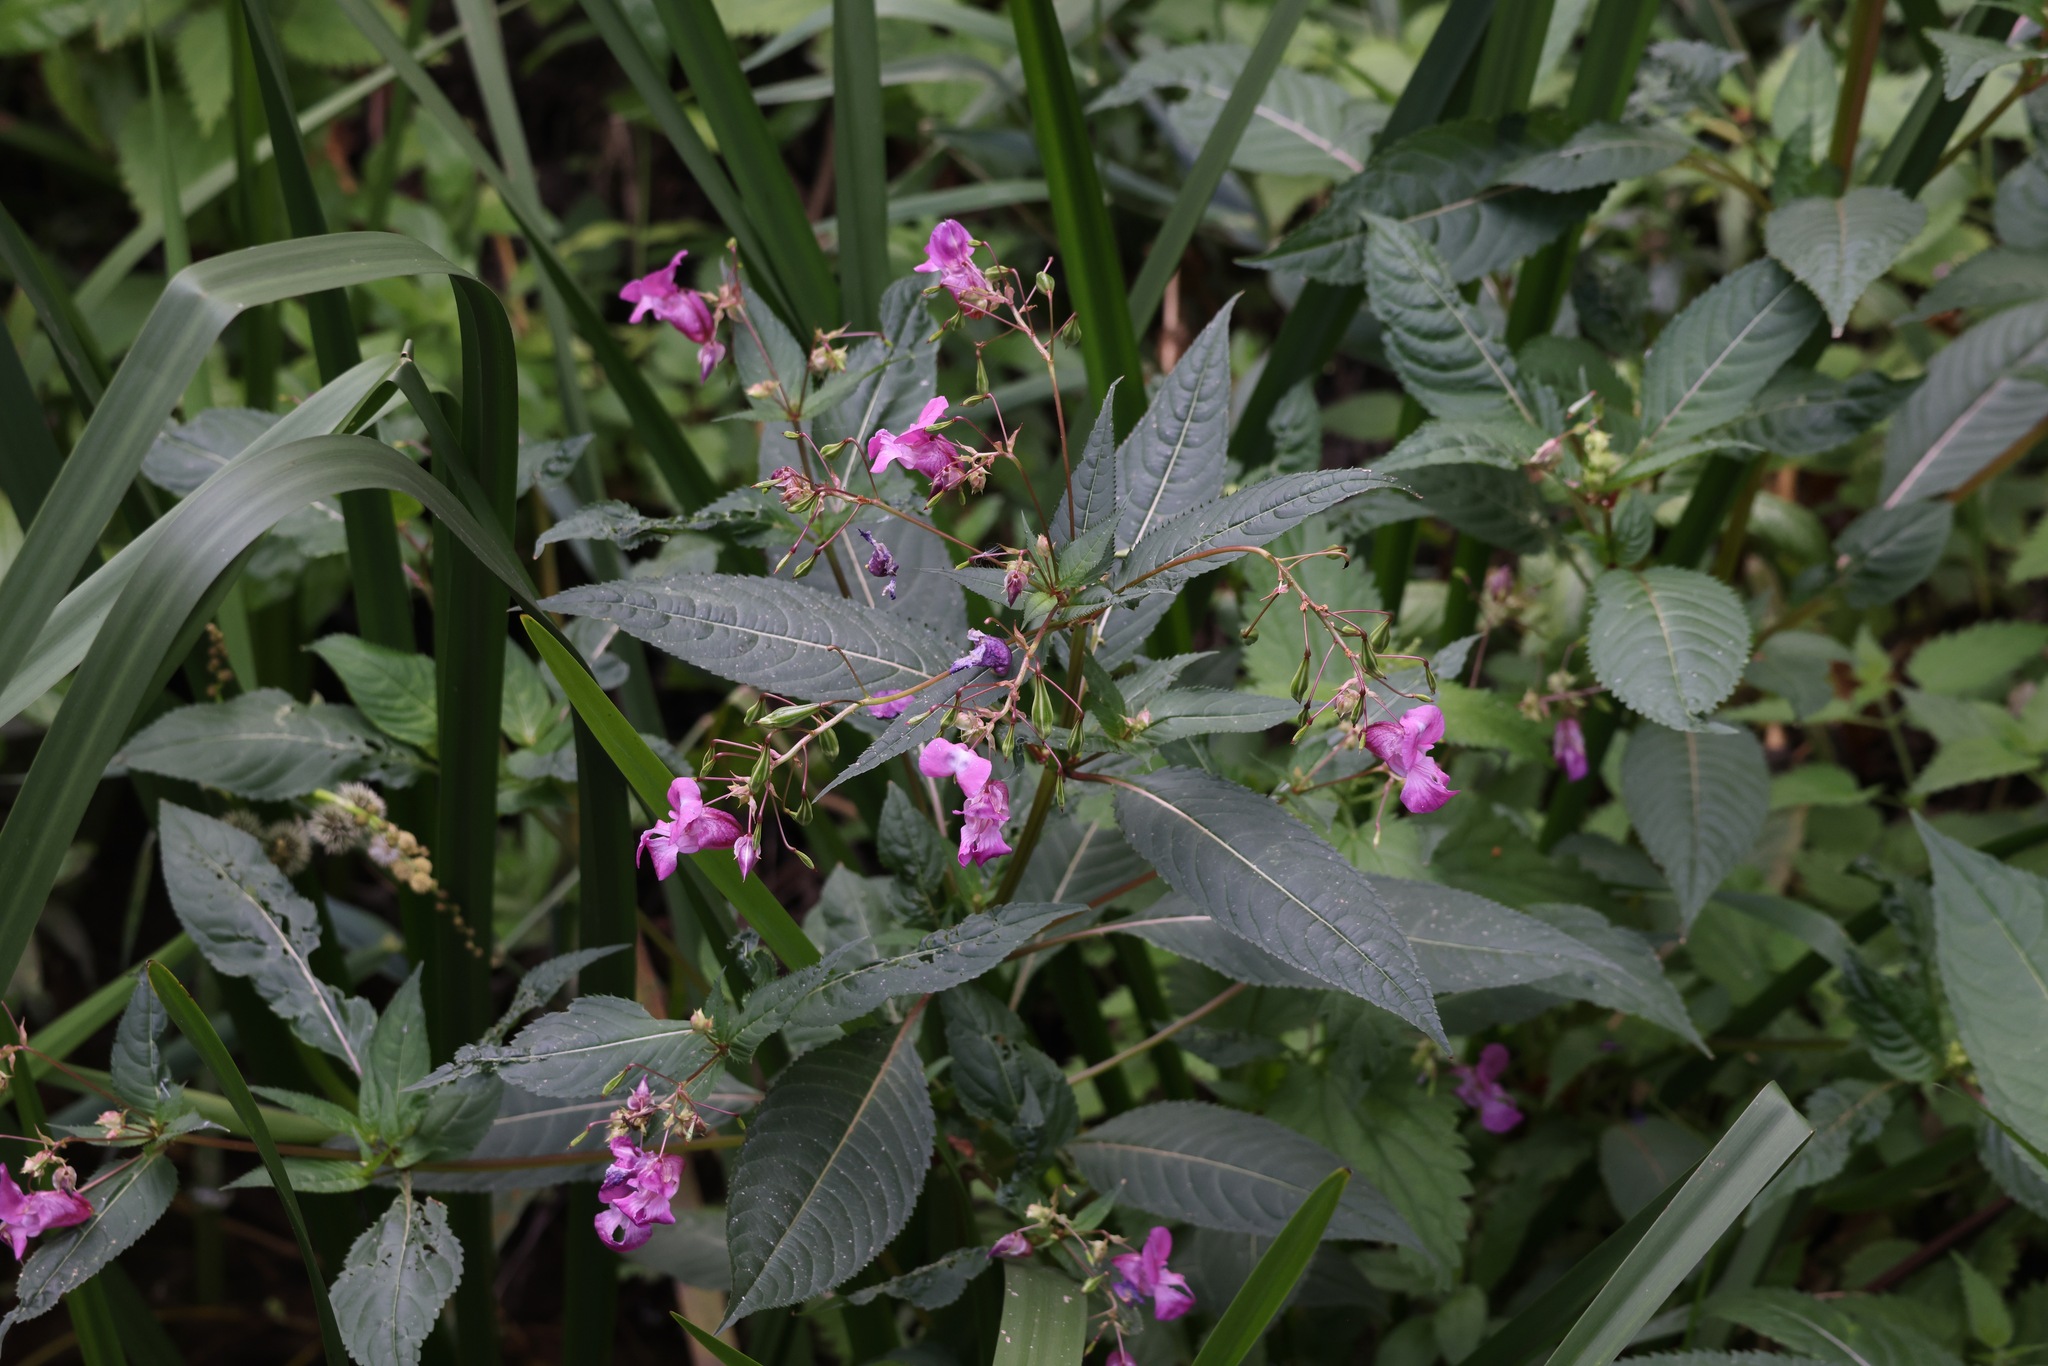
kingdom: Plantae
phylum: Tracheophyta
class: Magnoliopsida
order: Ericales
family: Balsaminaceae
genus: Impatiens
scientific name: Impatiens glandulifera
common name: Himalayan balsam
